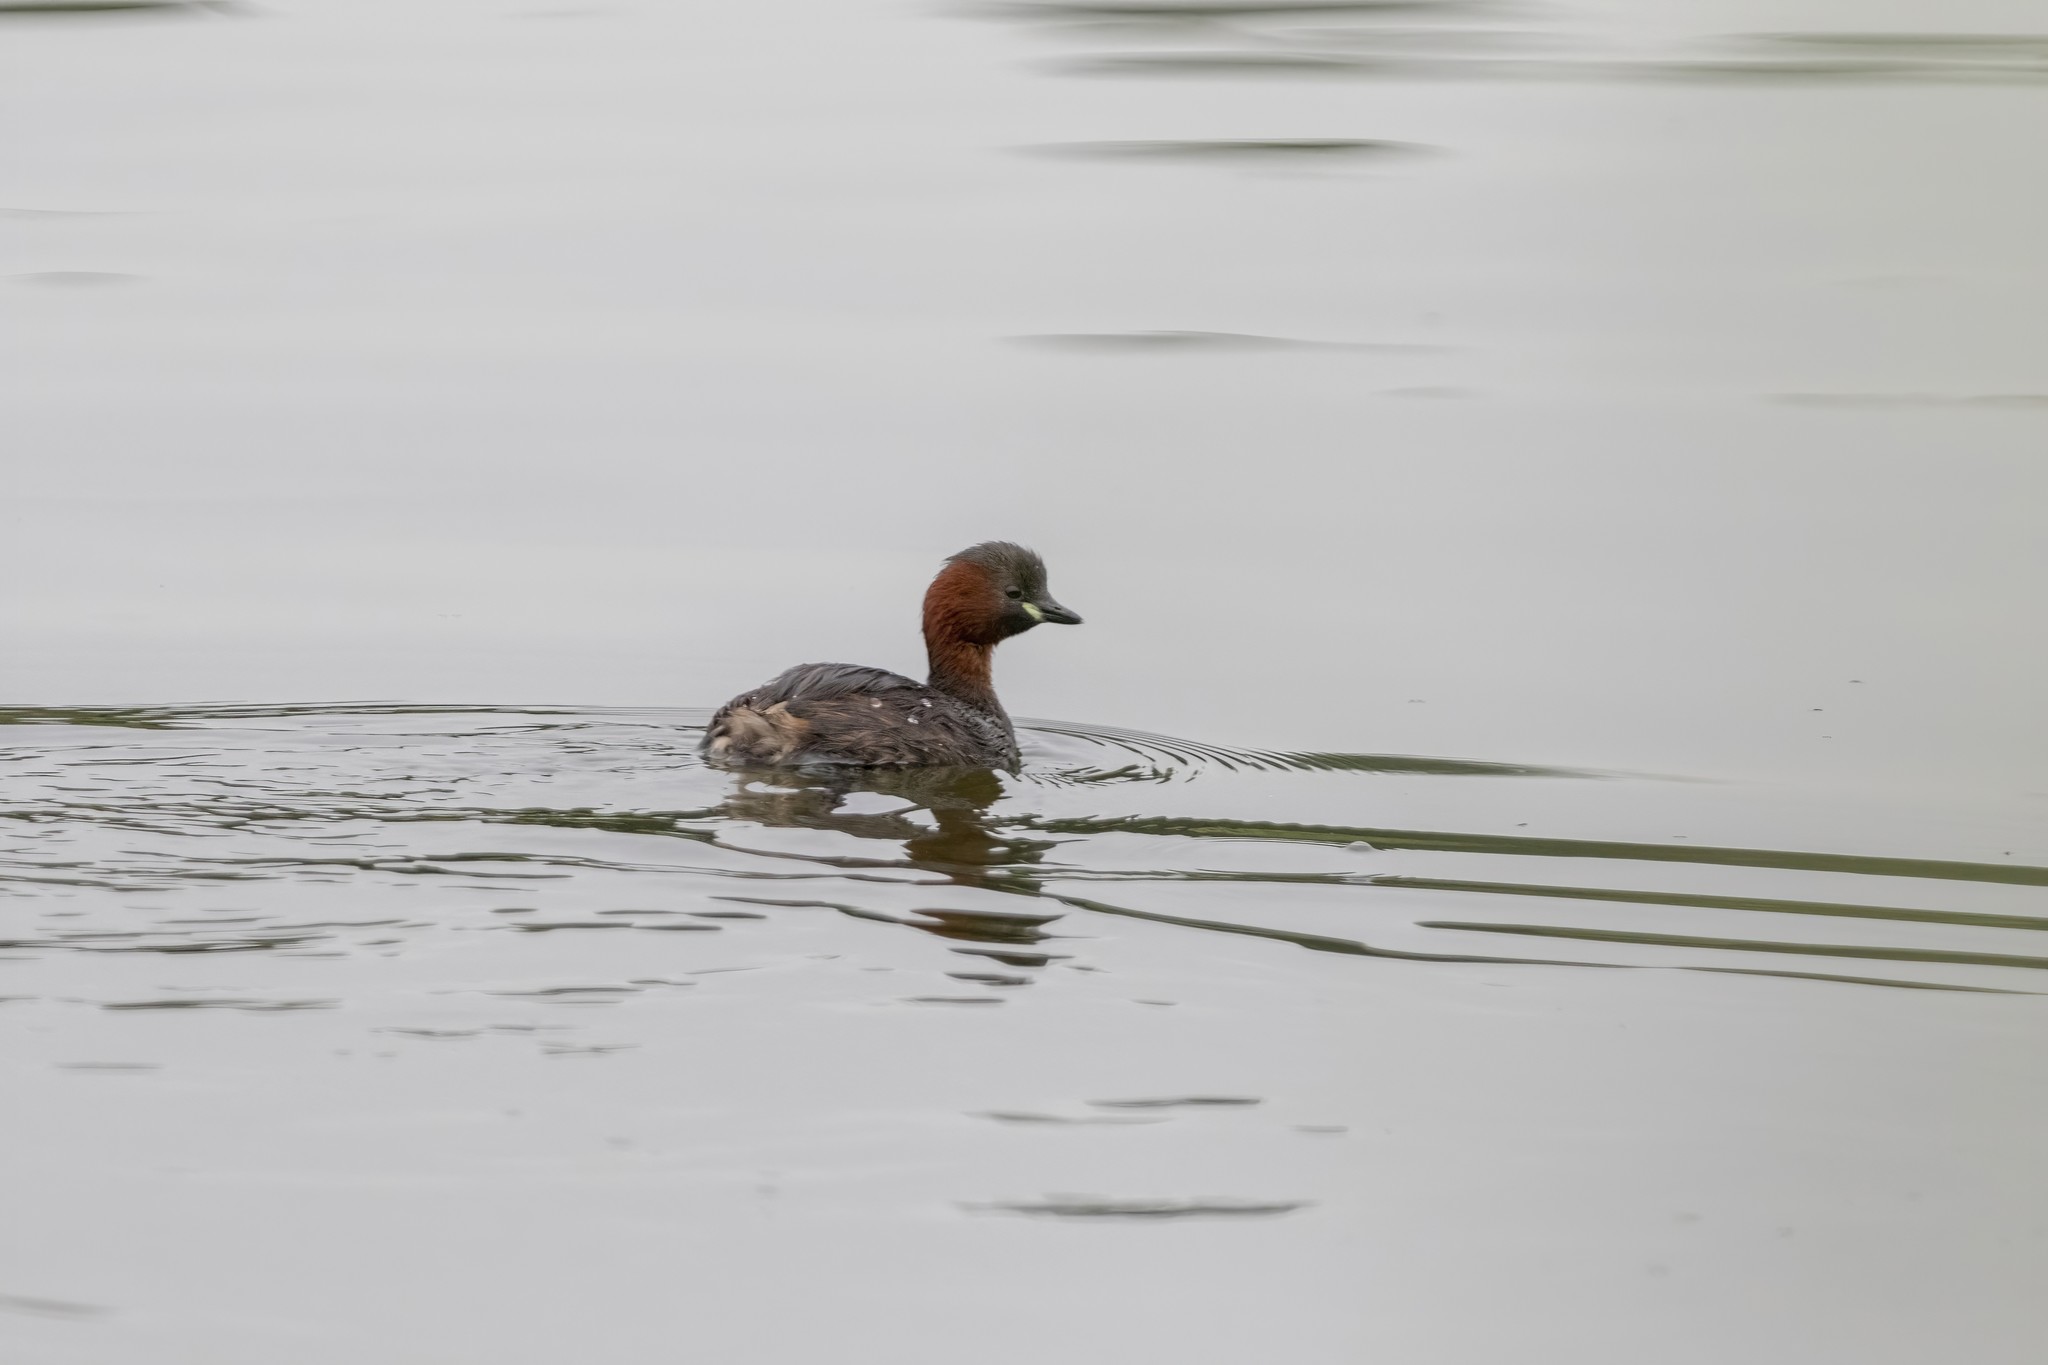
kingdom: Animalia
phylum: Chordata
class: Aves
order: Podicipediformes
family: Podicipedidae
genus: Tachybaptus
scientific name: Tachybaptus ruficollis
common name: Little grebe
